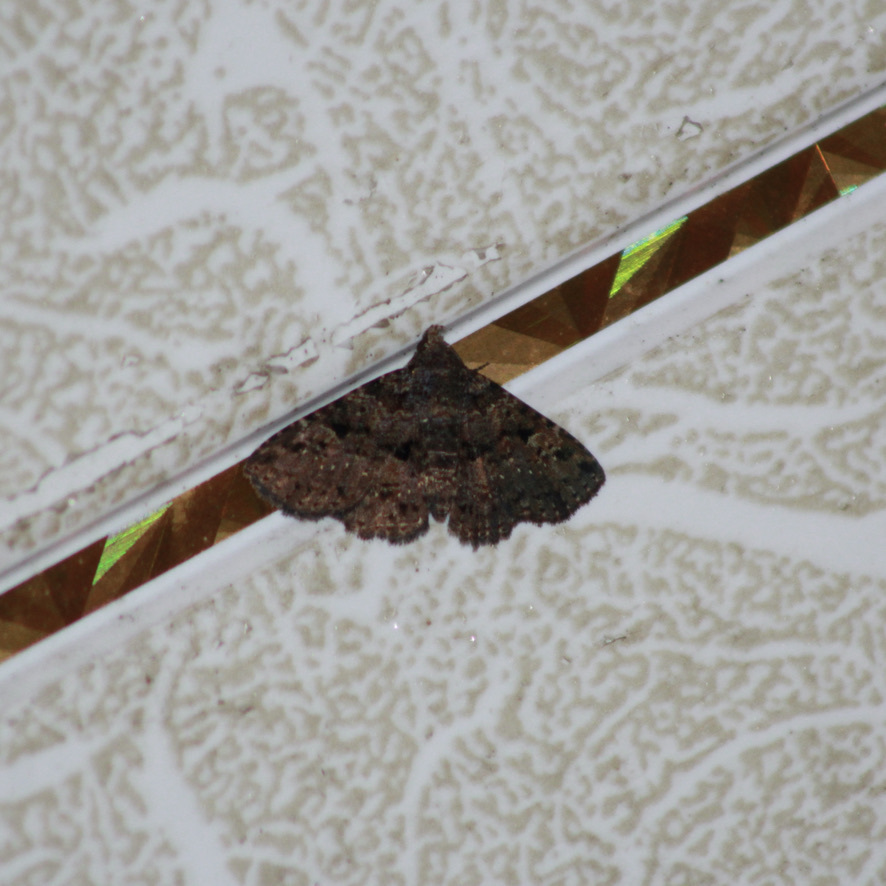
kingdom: Animalia
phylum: Arthropoda
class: Insecta
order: Lepidoptera
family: Erebidae
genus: Metalectra
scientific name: Metalectra praecisalis
